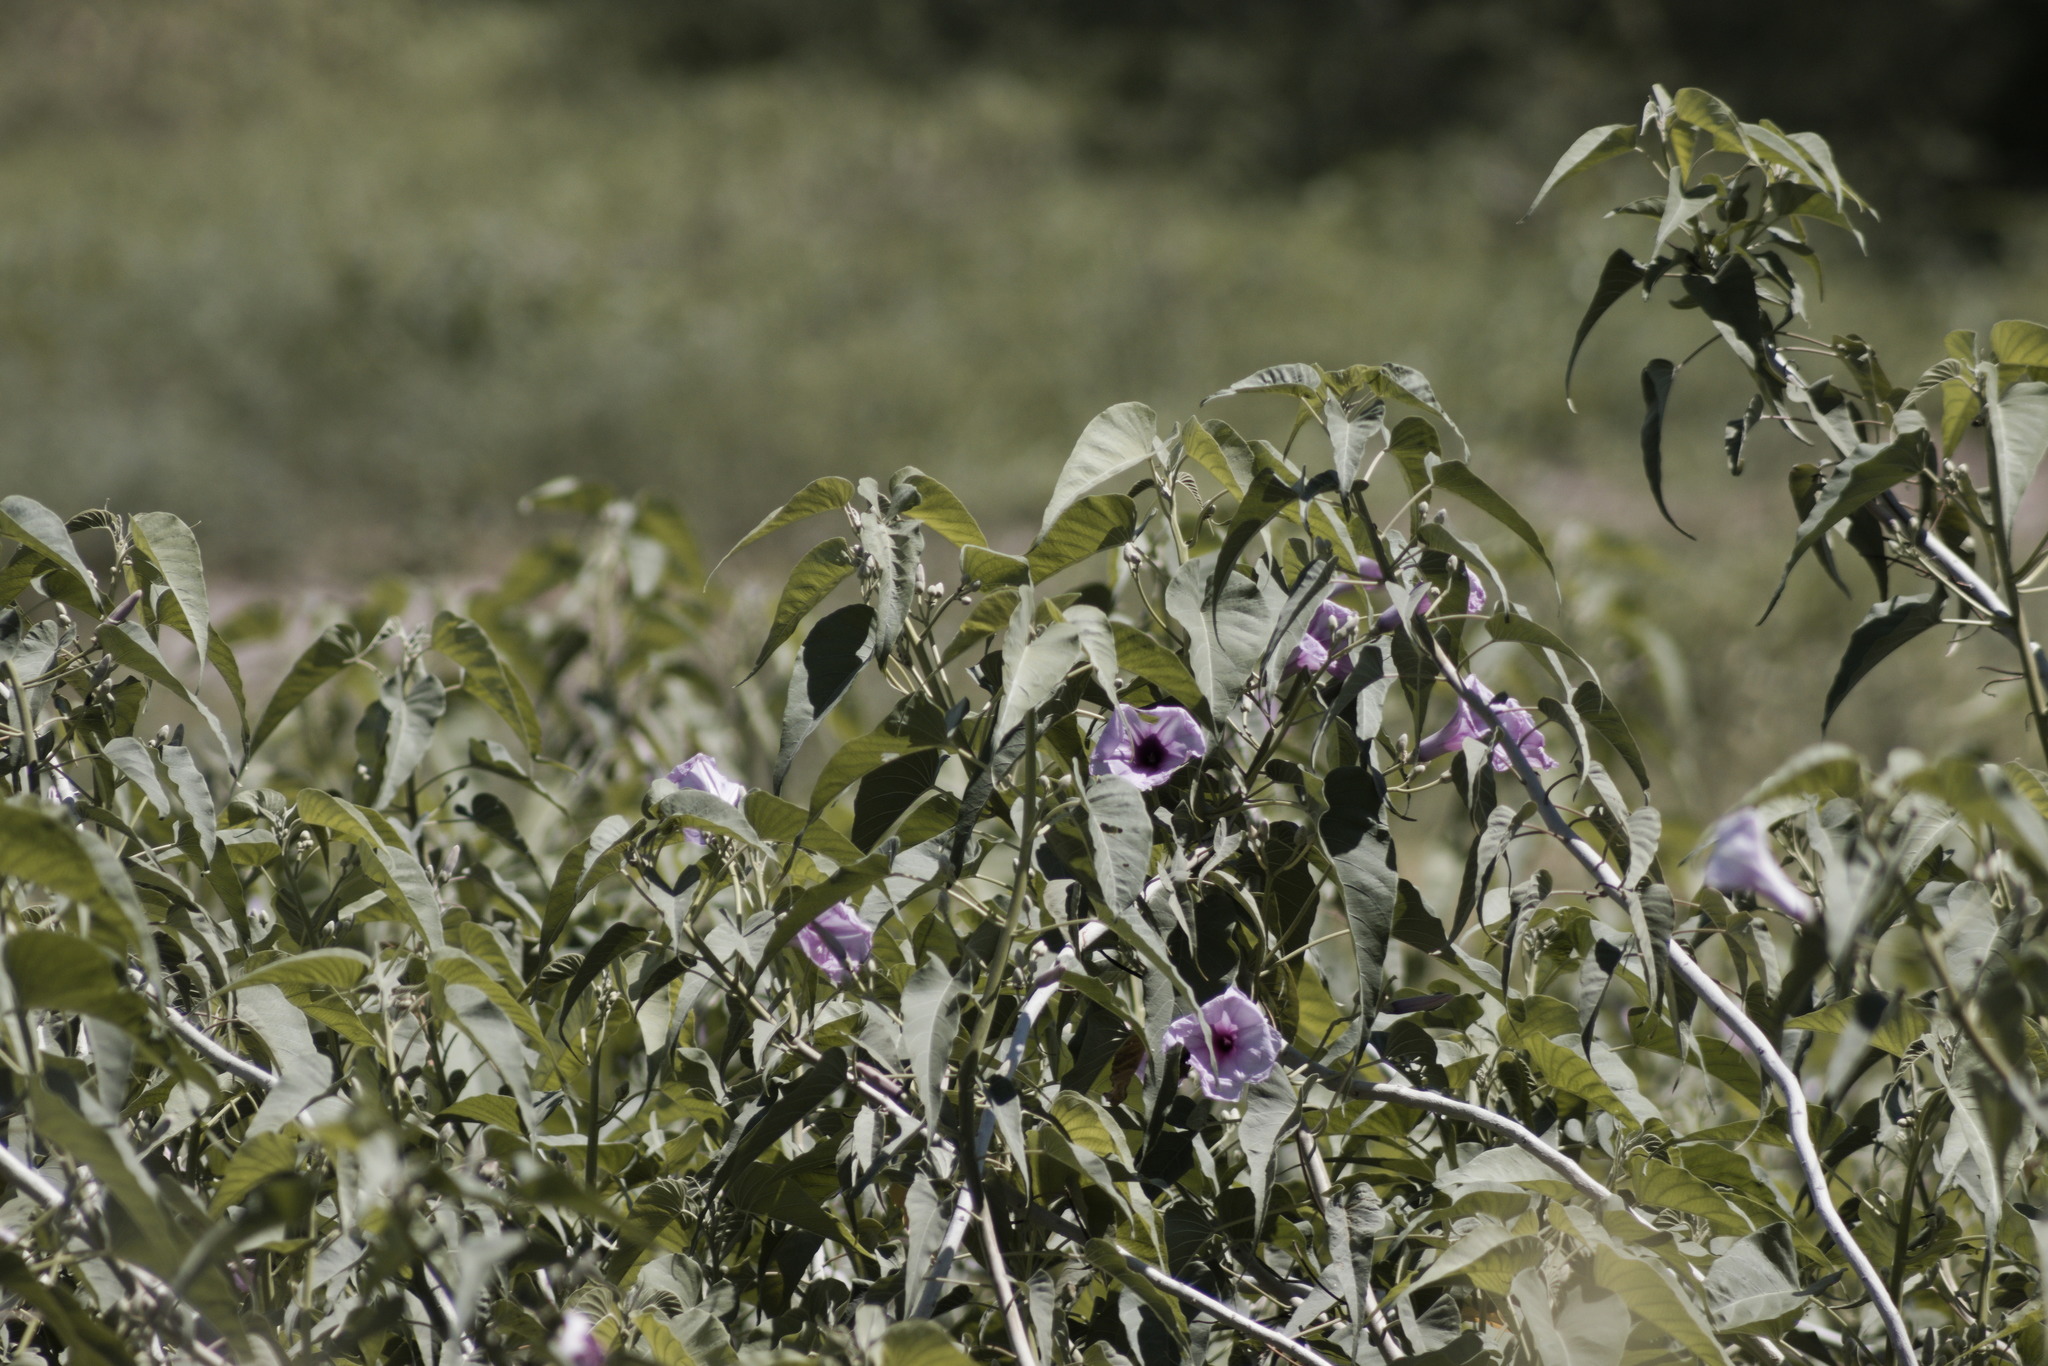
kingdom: Plantae
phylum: Tracheophyta
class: Magnoliopsida
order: Solanales
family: Convolvulaceae
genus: Ipomoea
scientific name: Ipomoea carnea
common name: Morning-glory
